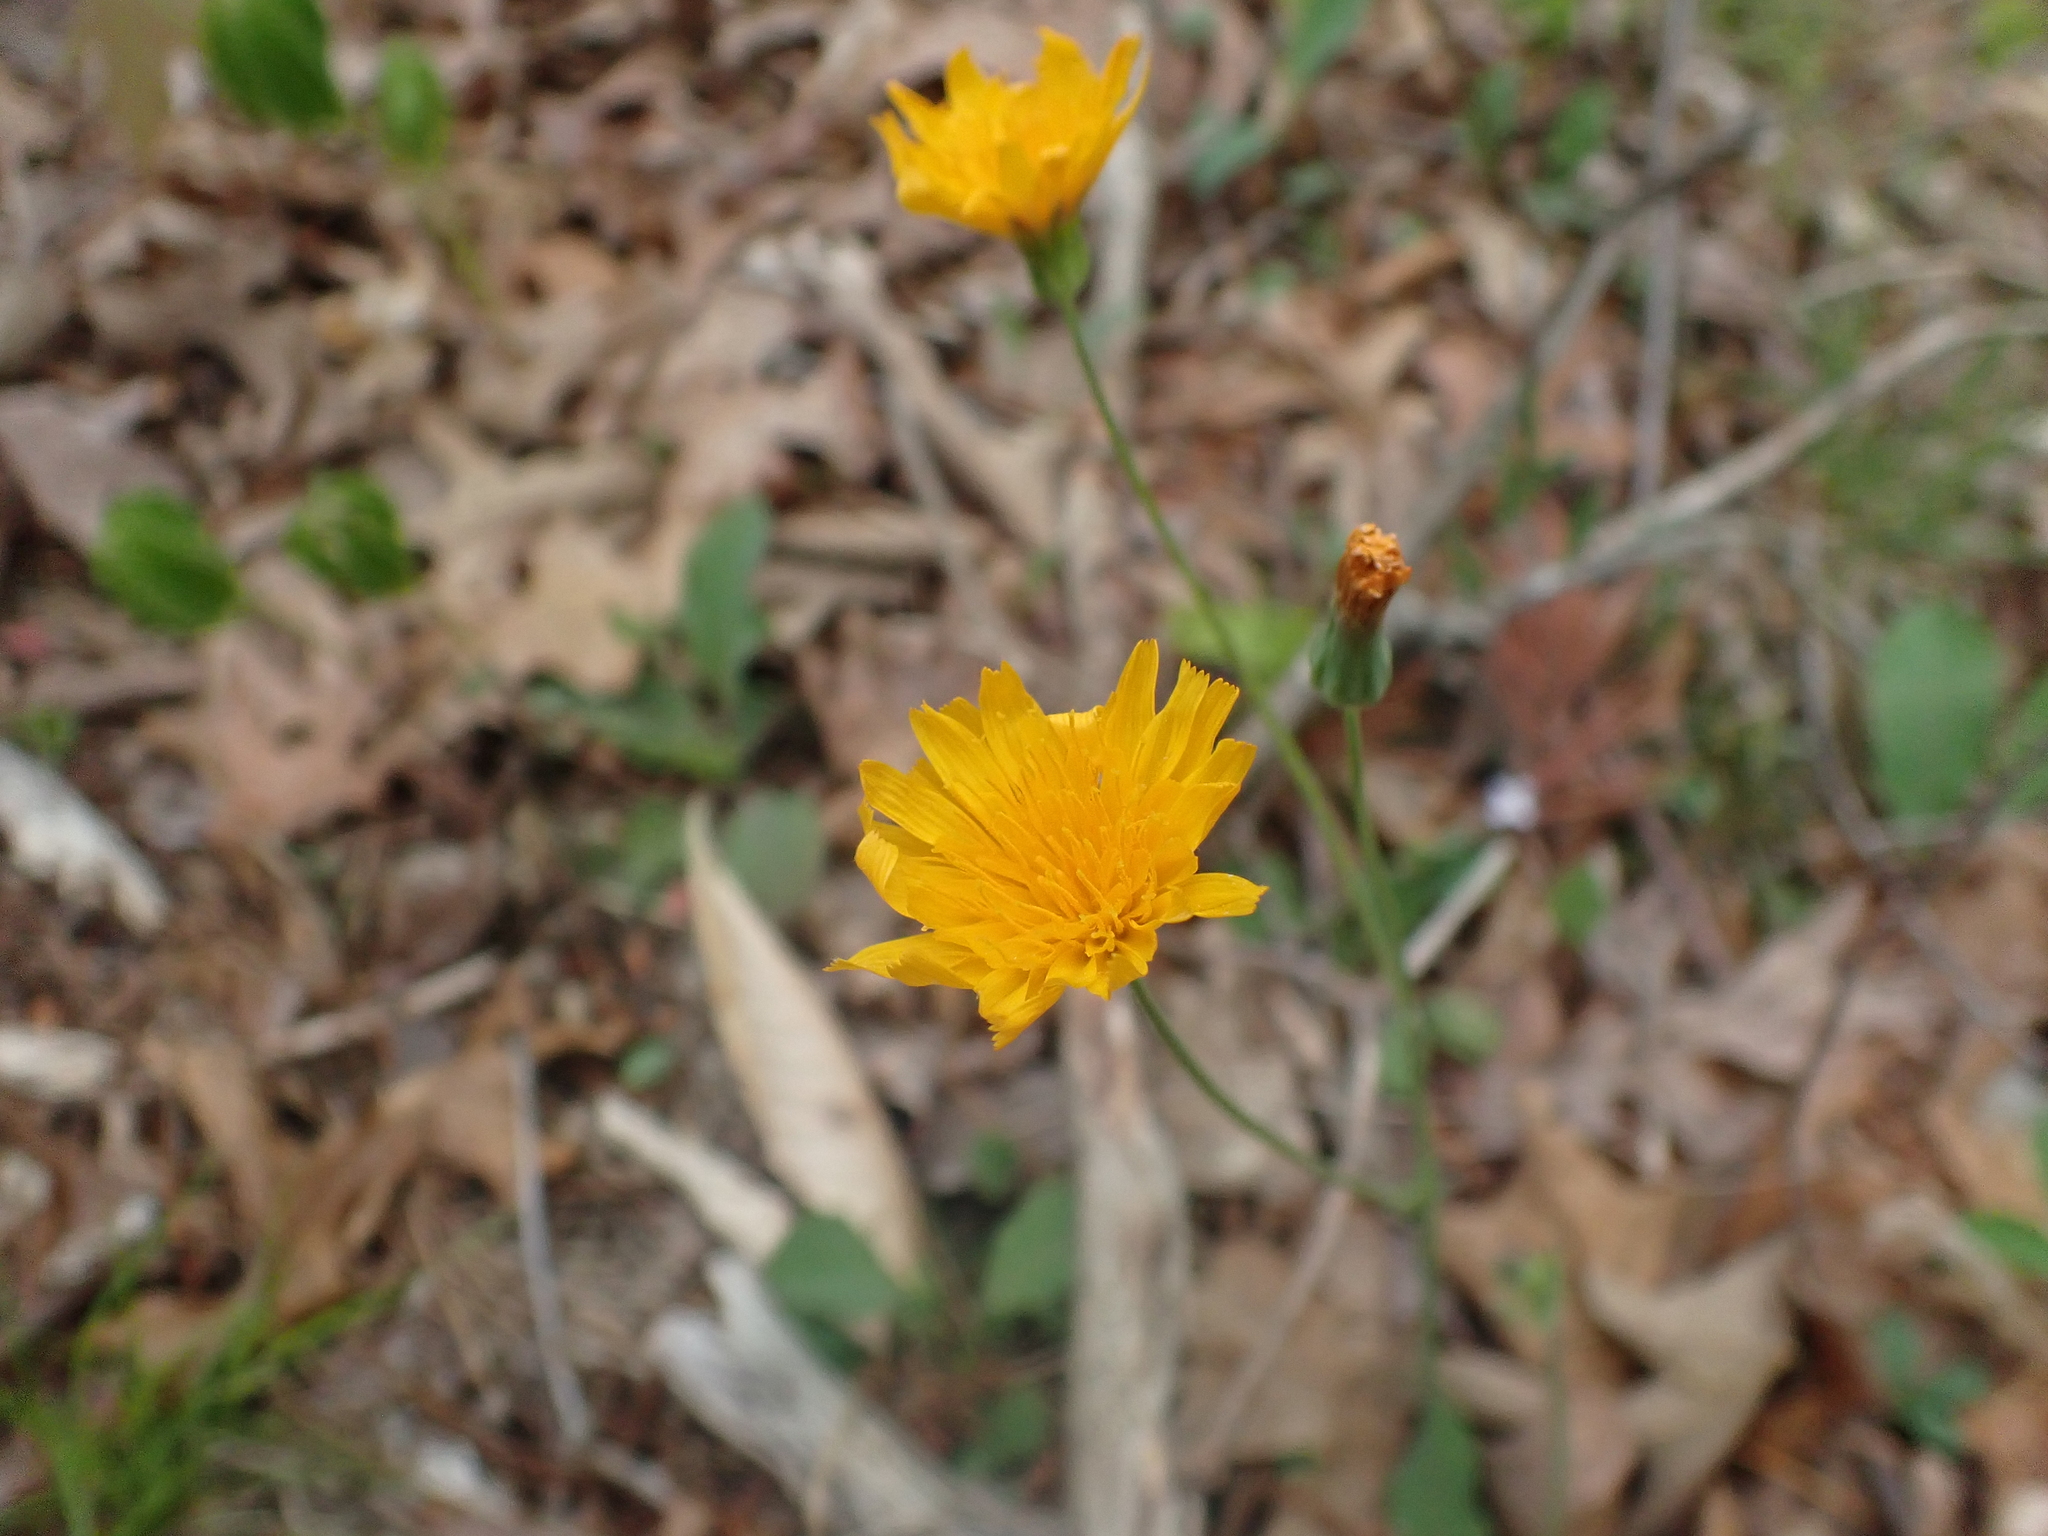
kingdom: Plantae
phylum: Tracheophyta
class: Magnoliopsida
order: Asterales
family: Asteraceae
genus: Krigia
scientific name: Krigia biflora
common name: Orange dwarf-dandelion
